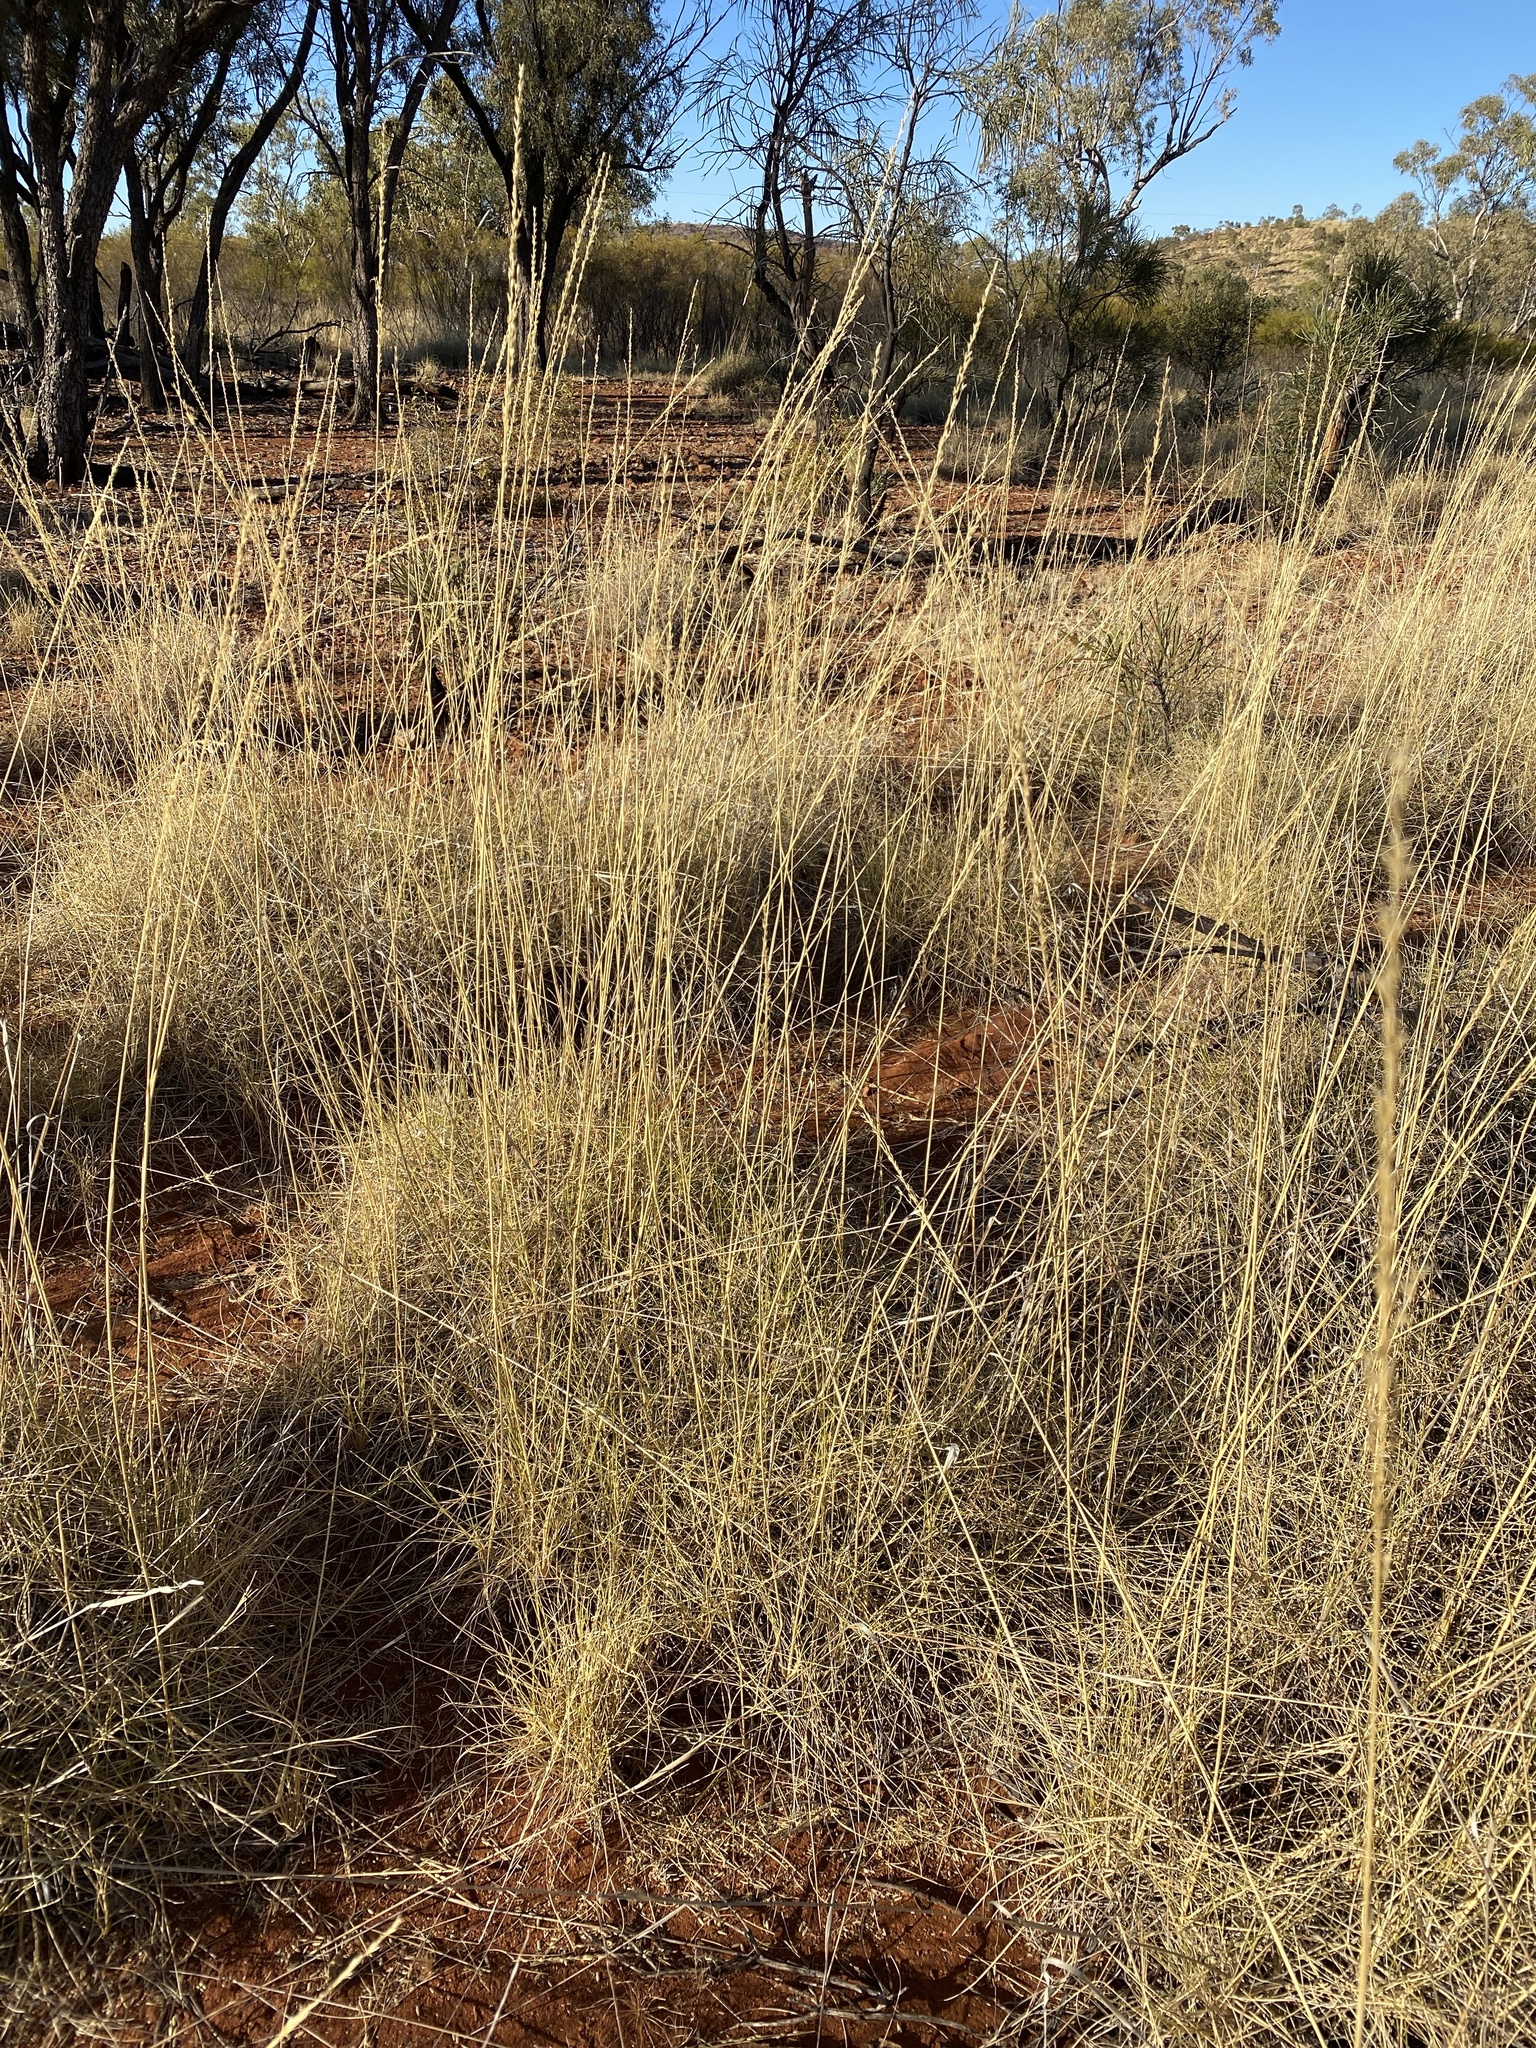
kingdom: Plantae
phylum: Tracheophyta
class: Liliopsida
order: Poales
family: Poaceae
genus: Triodia
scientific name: Triodia pungens
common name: Soft spinifex
